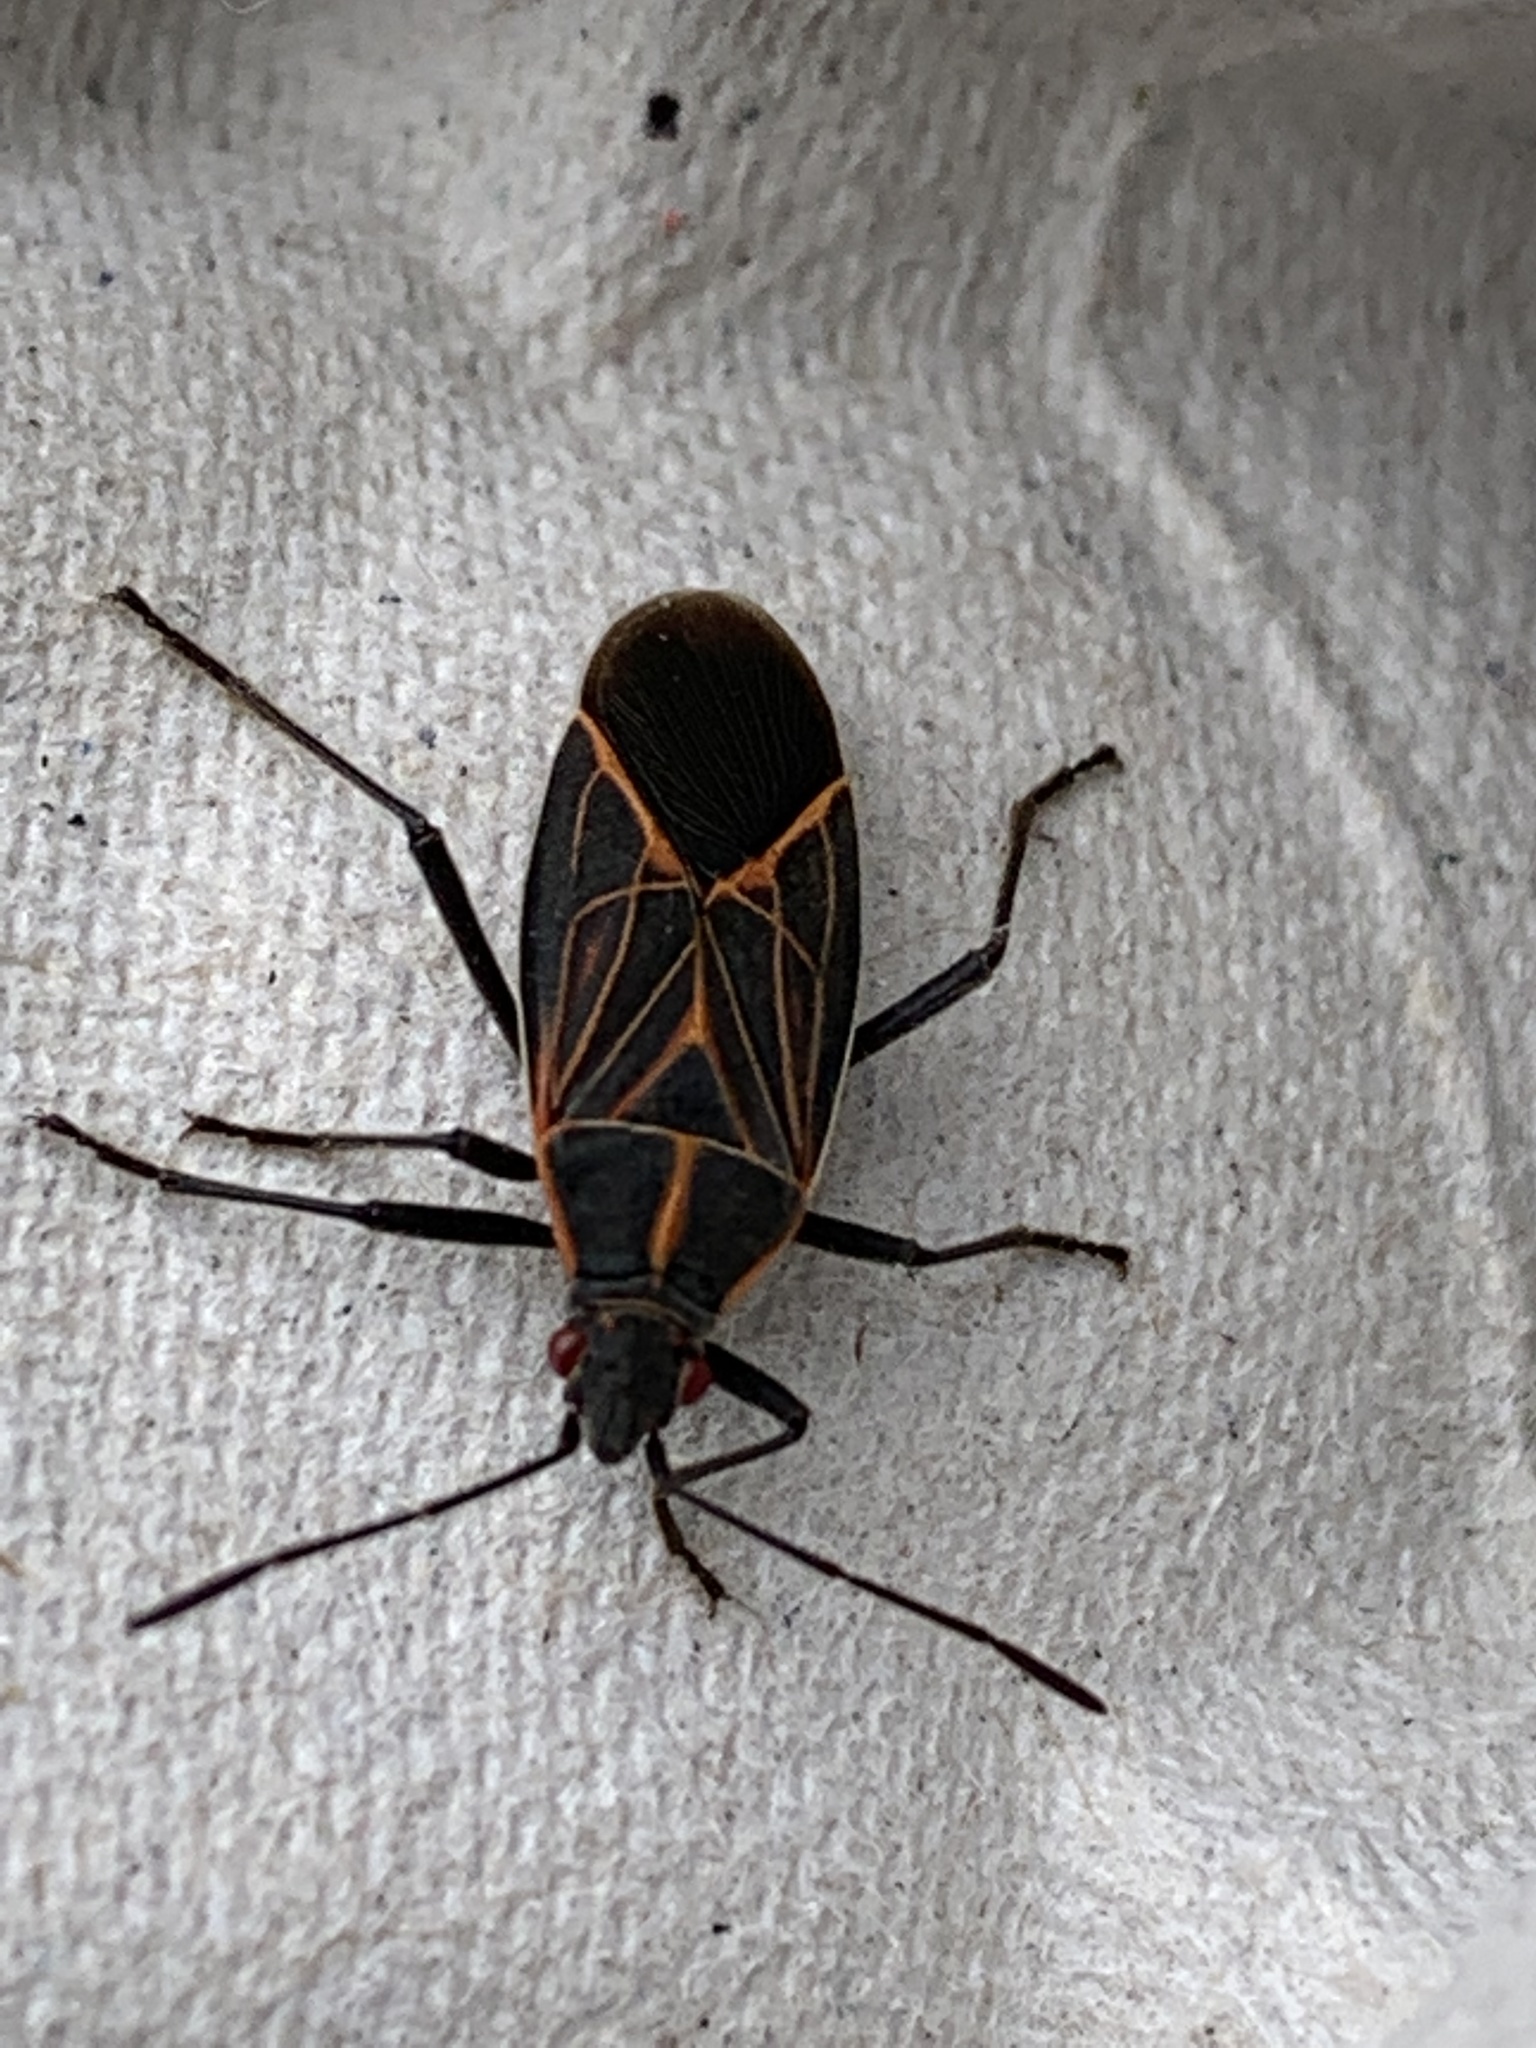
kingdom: Animalia
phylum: Arthropoda
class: Insecta
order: Hemiptera
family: Rhopalidae
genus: Boisea
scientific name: Boisea rubrolineata
